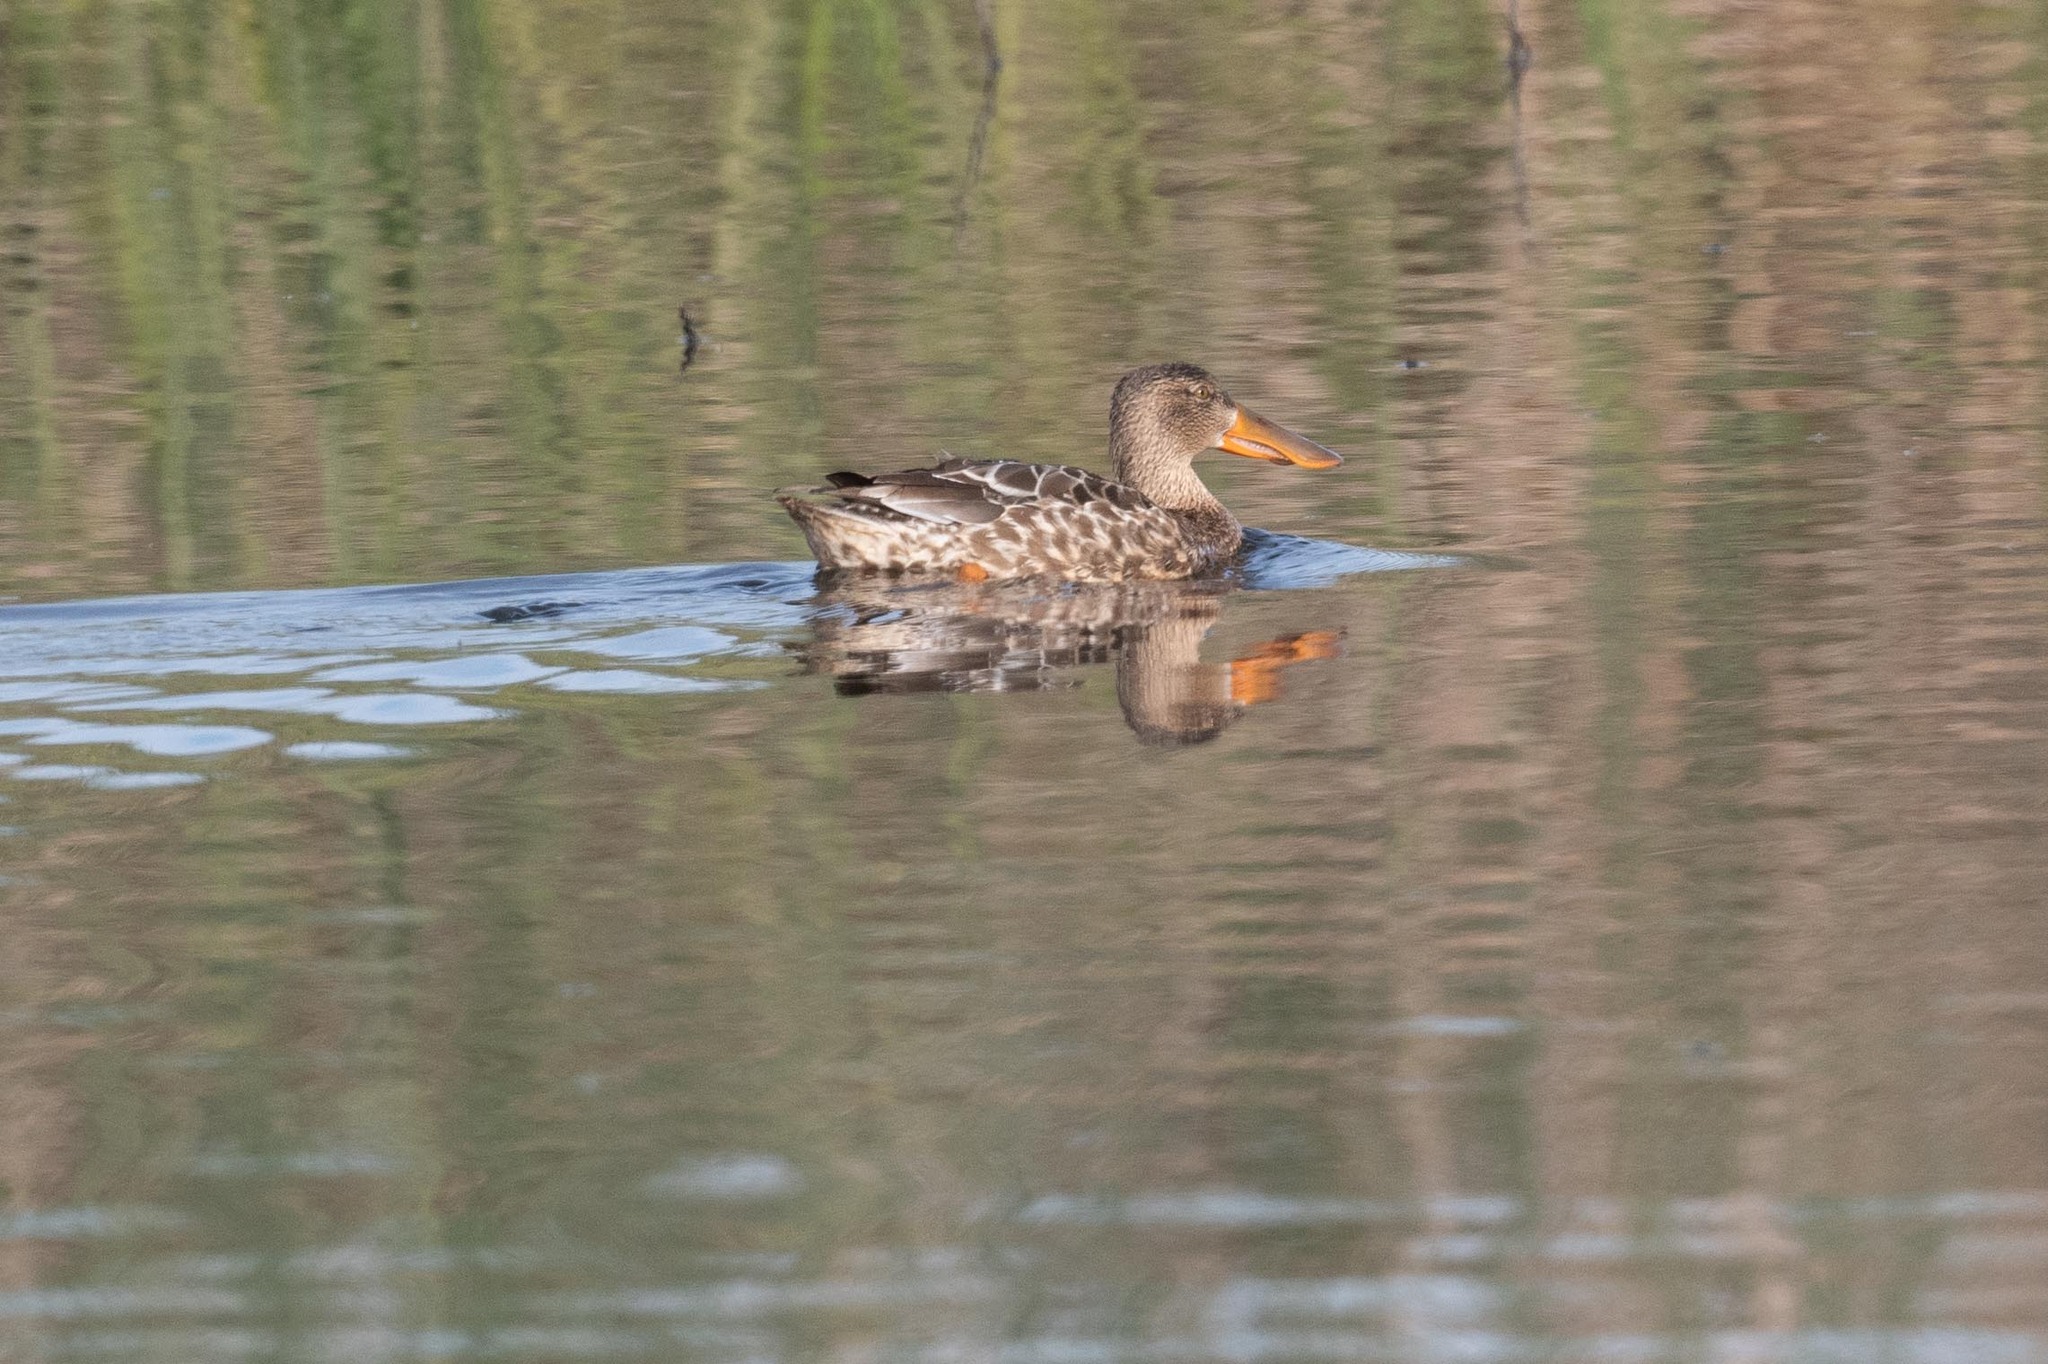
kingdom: Animalia
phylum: Chordata
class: Aves
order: Anseriformes
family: Anatidae
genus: Spatula
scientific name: Spatula clypeata
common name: Northern shoveler
